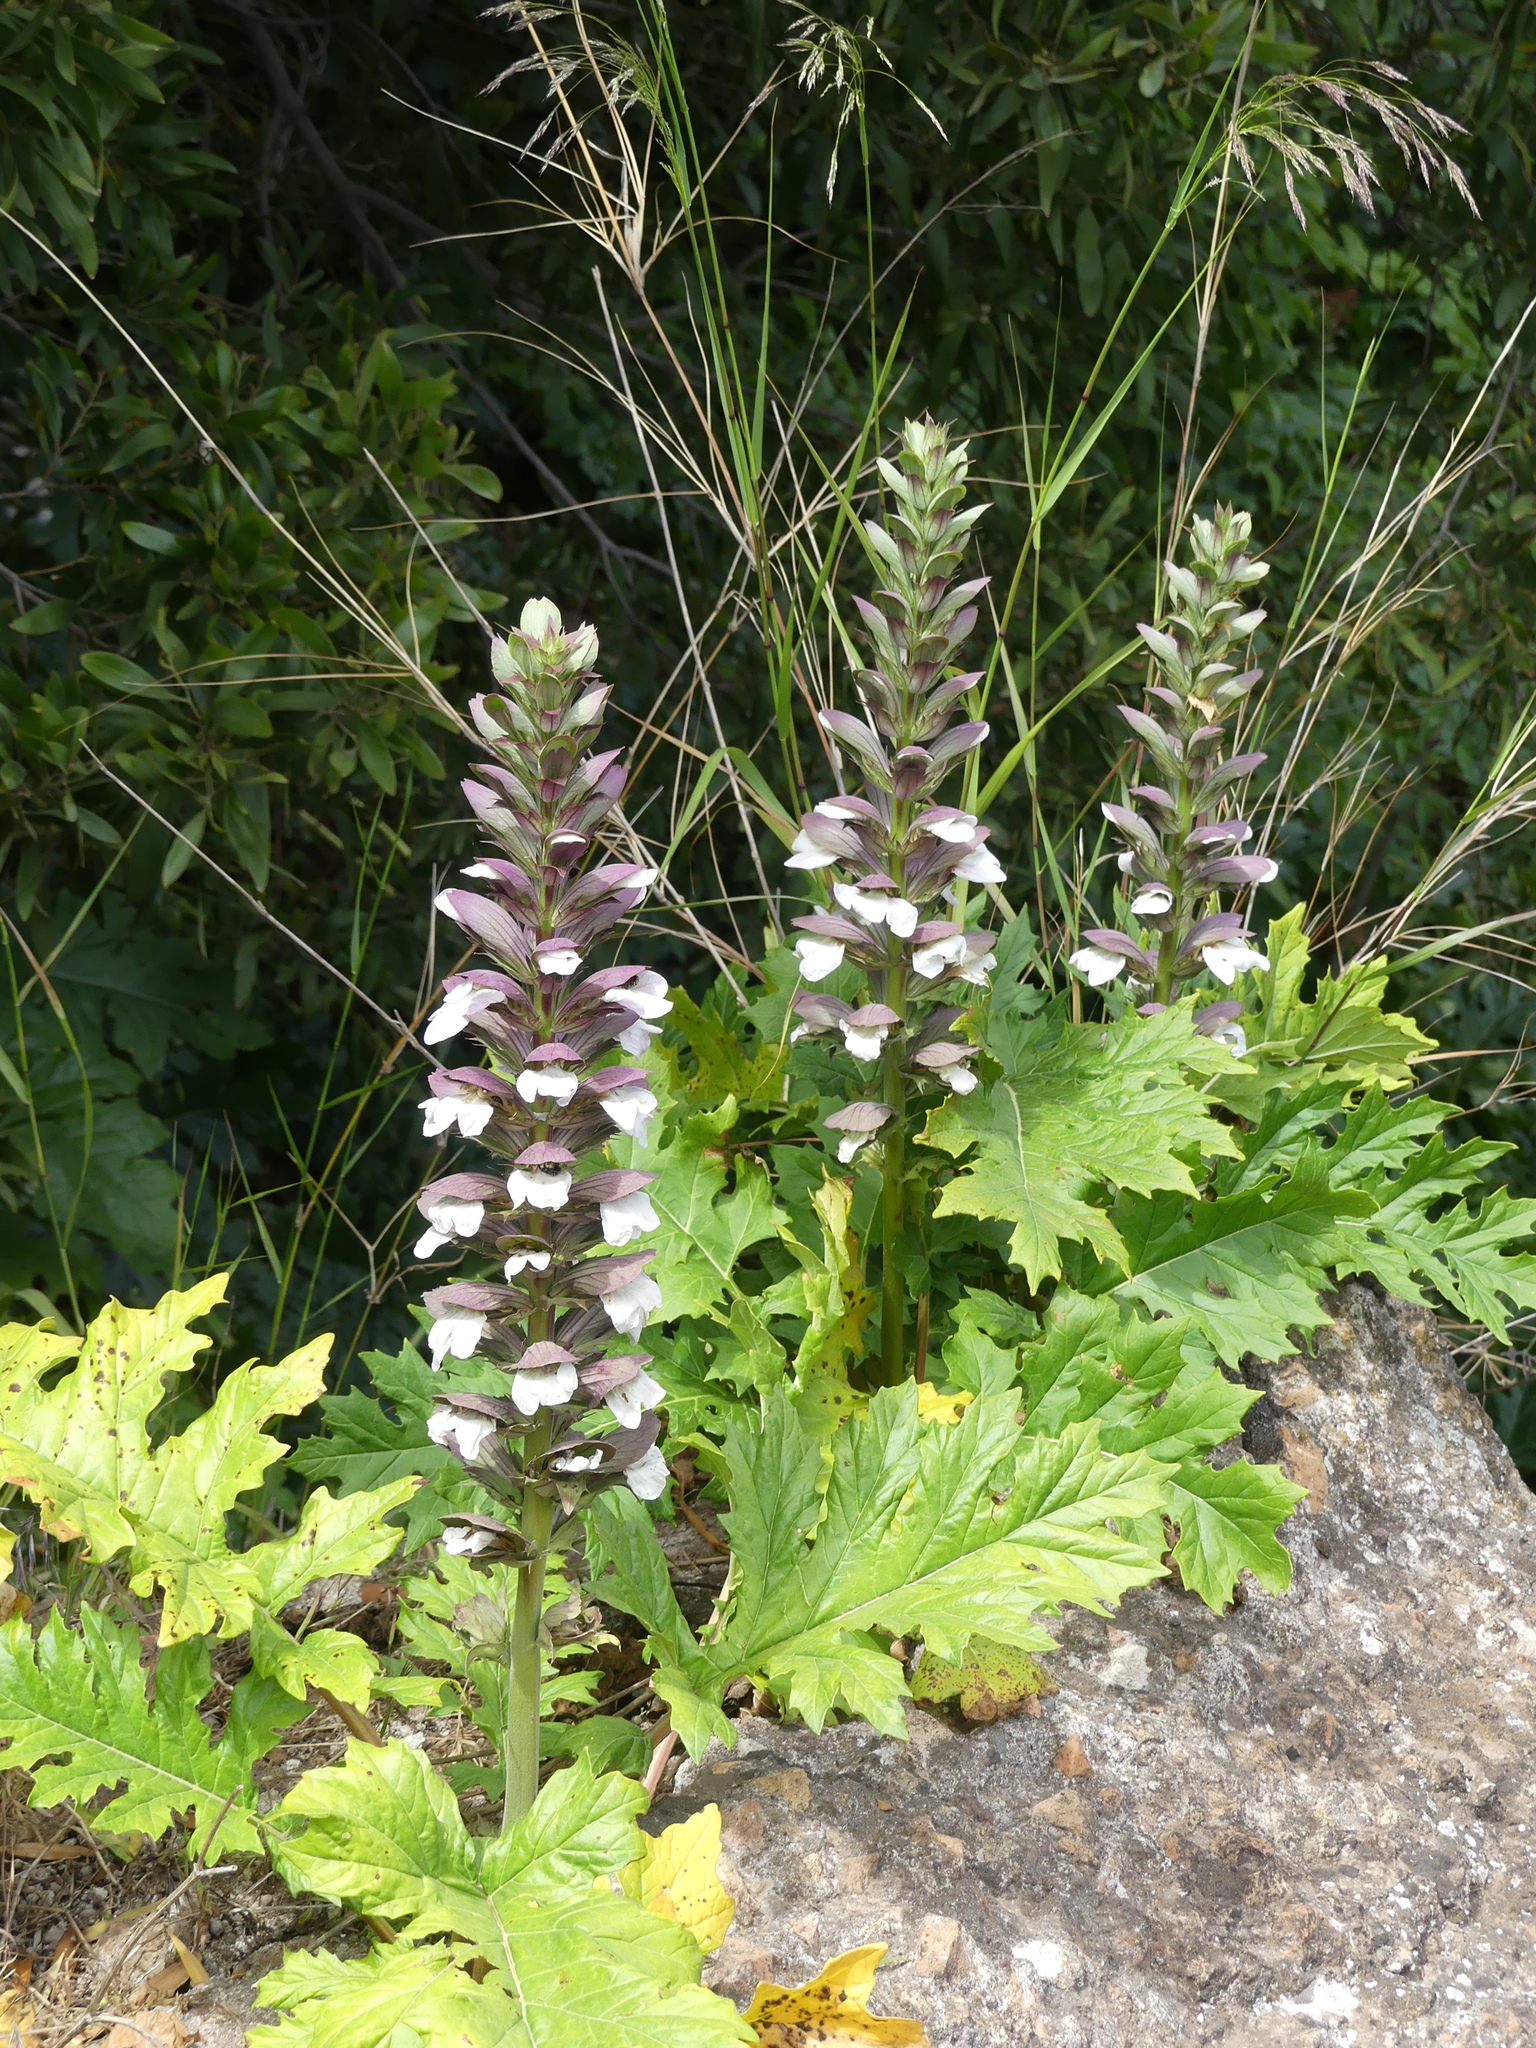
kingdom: Plantae
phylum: Tracheophyta
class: Magnoliopsida
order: Lamiales
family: Acanthaceae
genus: Acanthus
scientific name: Acanthus mollis
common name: Bear's-breech
